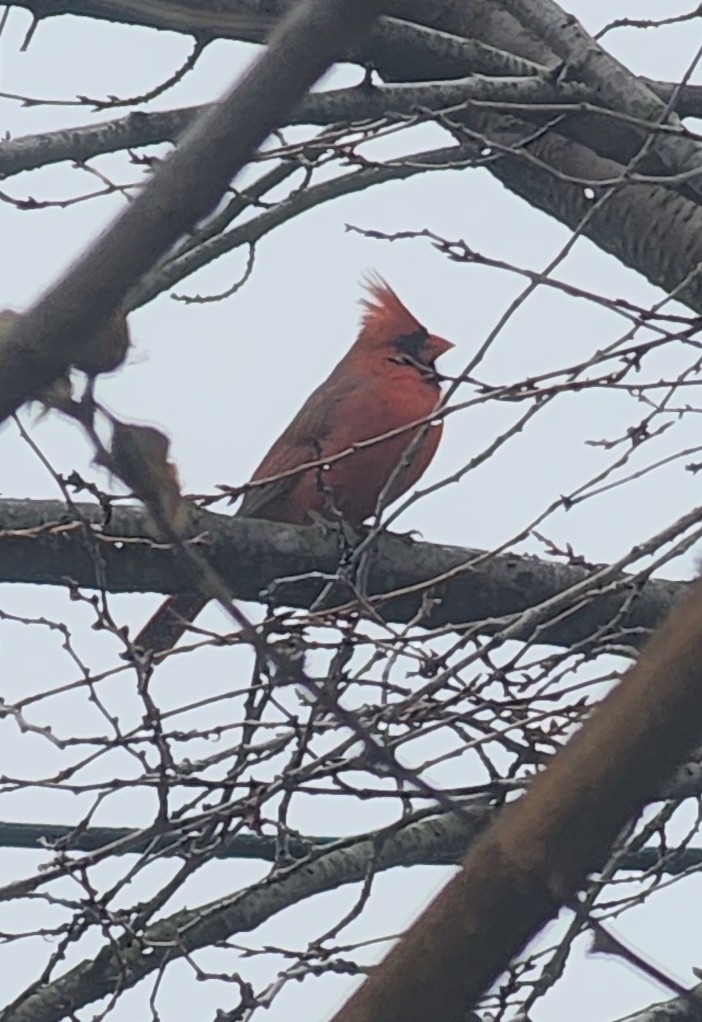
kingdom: Animalia
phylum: Chordata
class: Aves
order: Passeriformes
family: Cardinalidae
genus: Cardinalis
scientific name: Cardinalis cardinalis
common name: Northern cardinal
